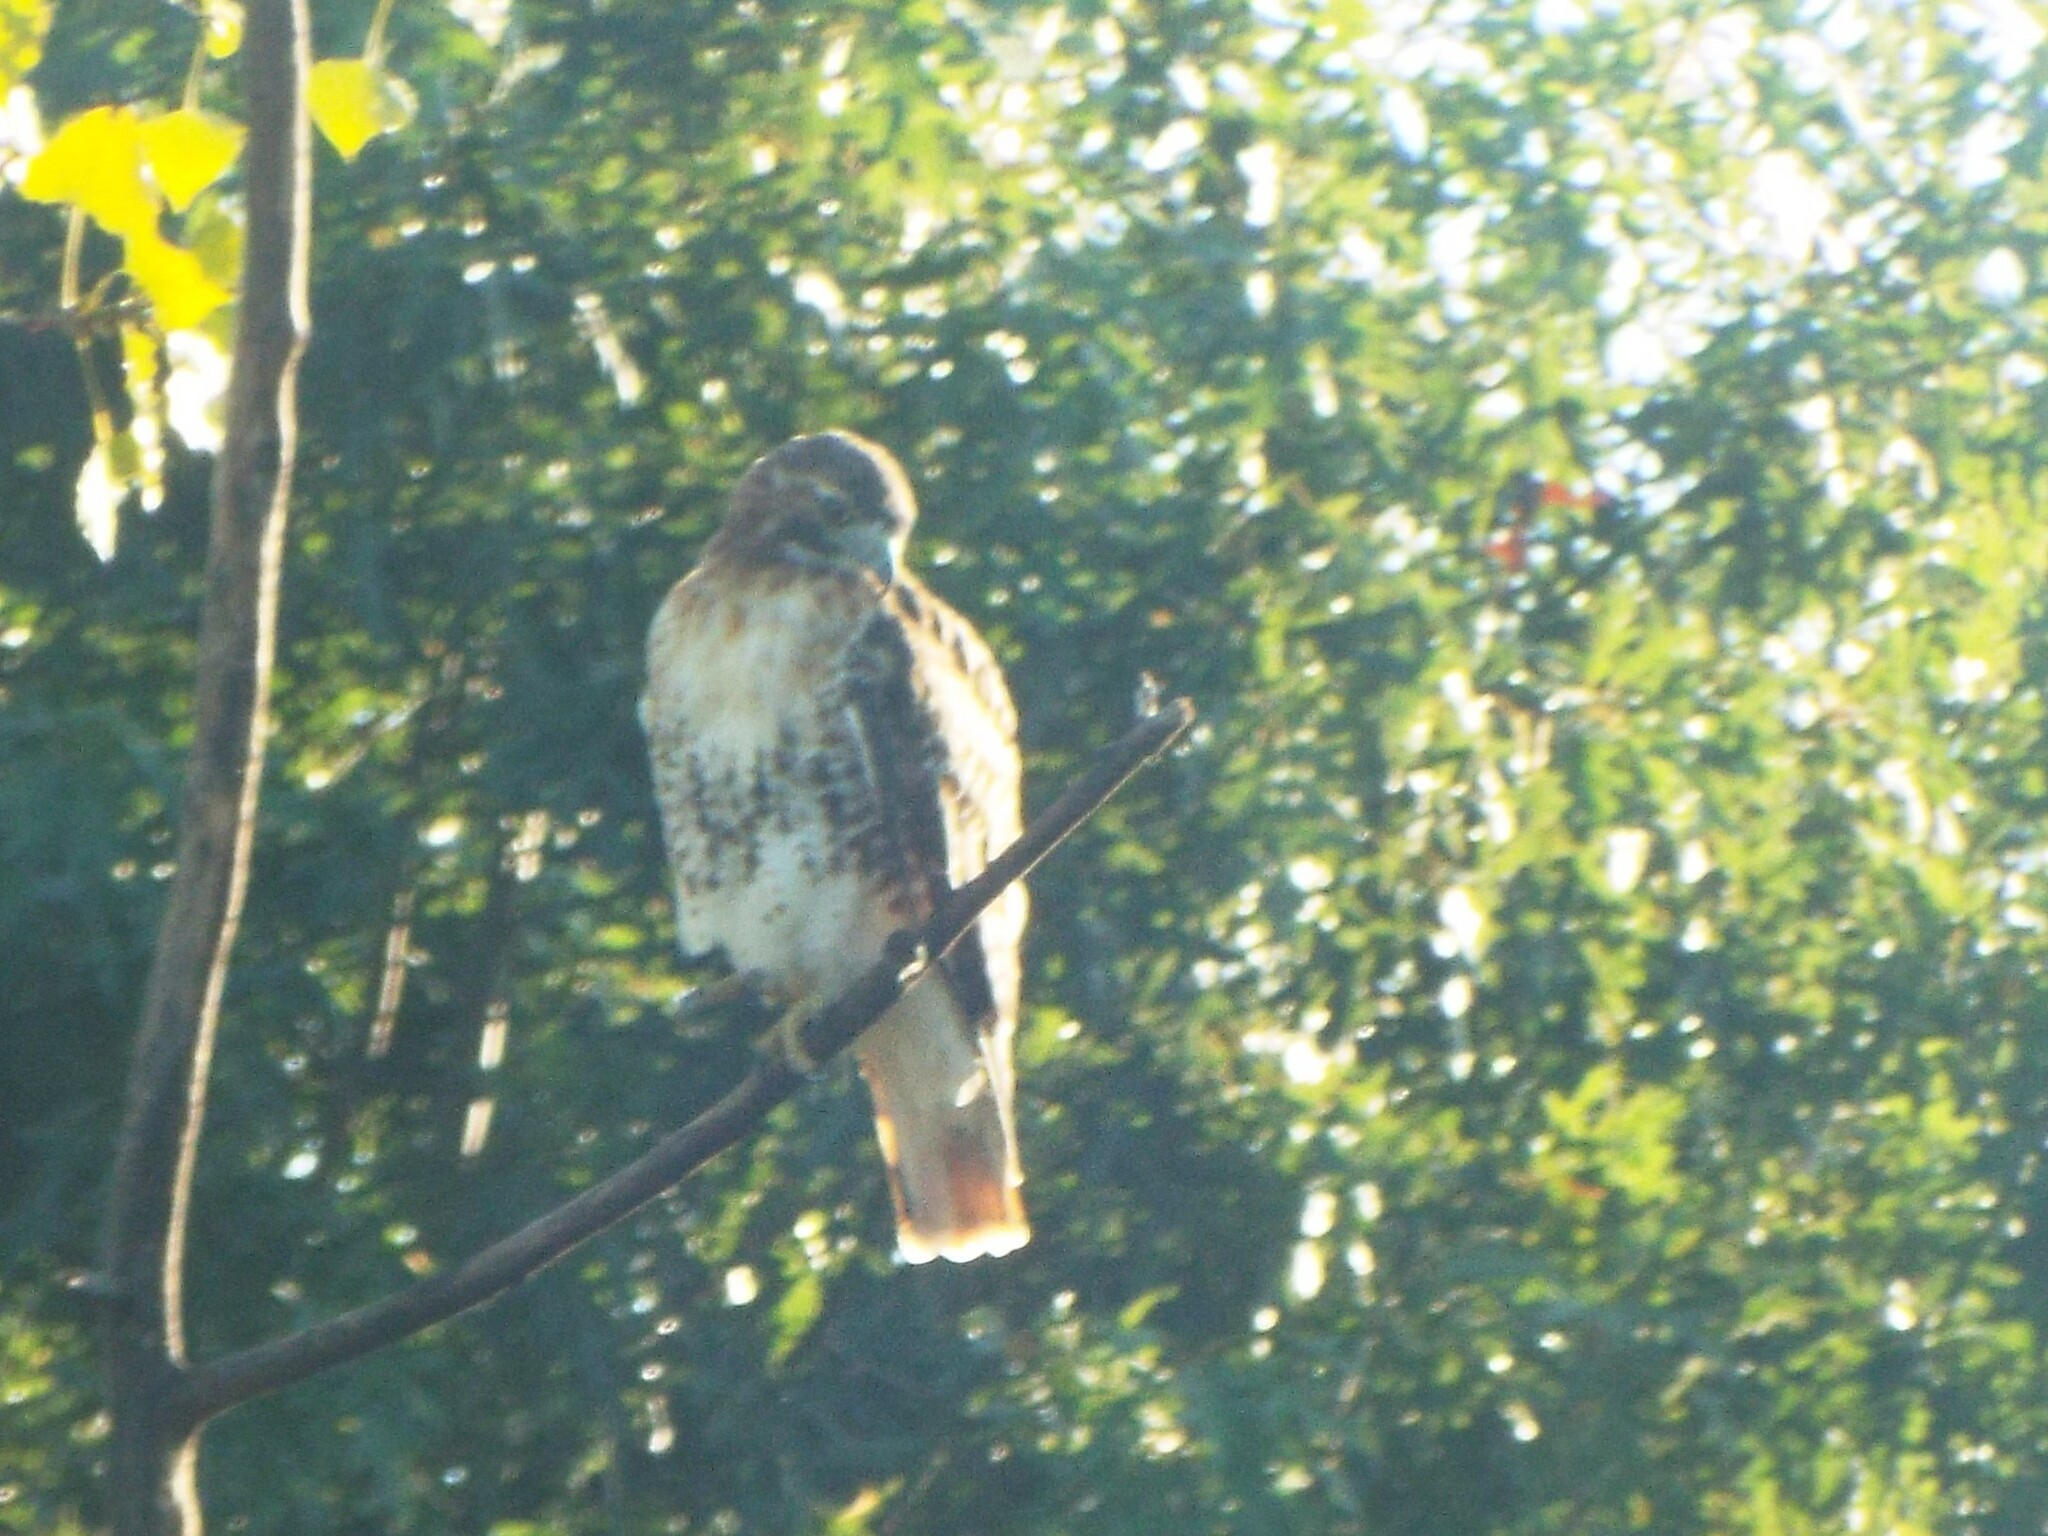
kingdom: Animalia
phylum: Chordata
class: Aves
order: Accipitriformes
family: Accipitridae
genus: Buteo
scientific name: Buteo jamaicensis
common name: Red-tailed hawk
